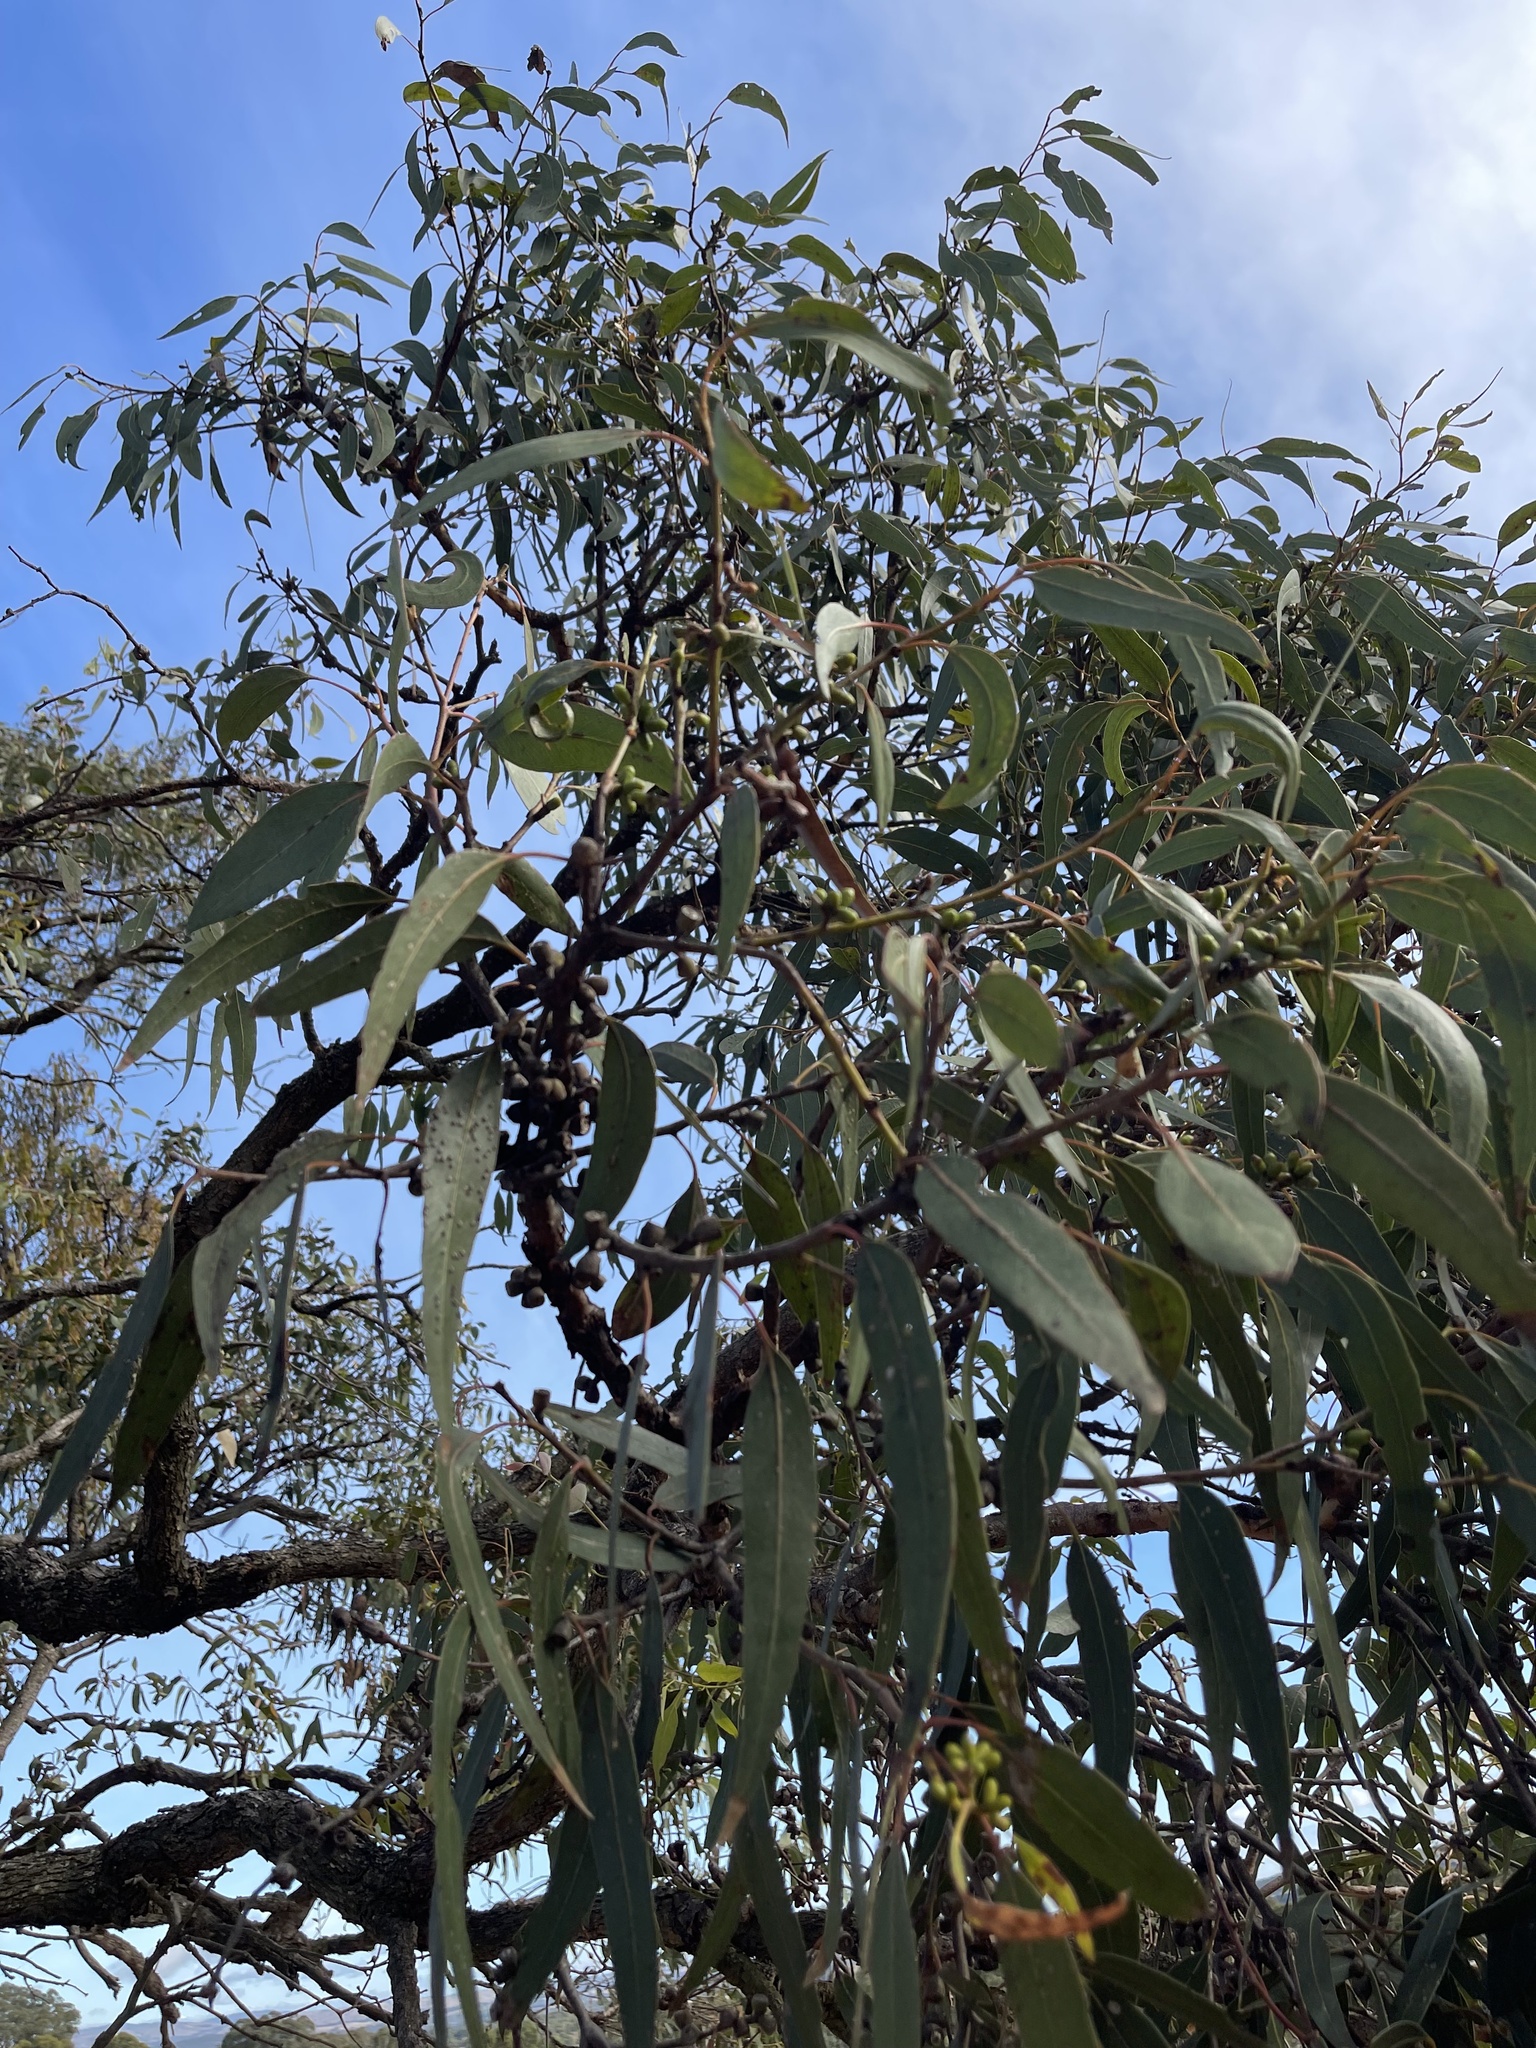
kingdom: Plantae
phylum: Tracheophyta
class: Magnoliopsida
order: Myrtales
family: Myrtaceae
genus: Eucalyptus
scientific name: Eucalyptus goniocalyx
